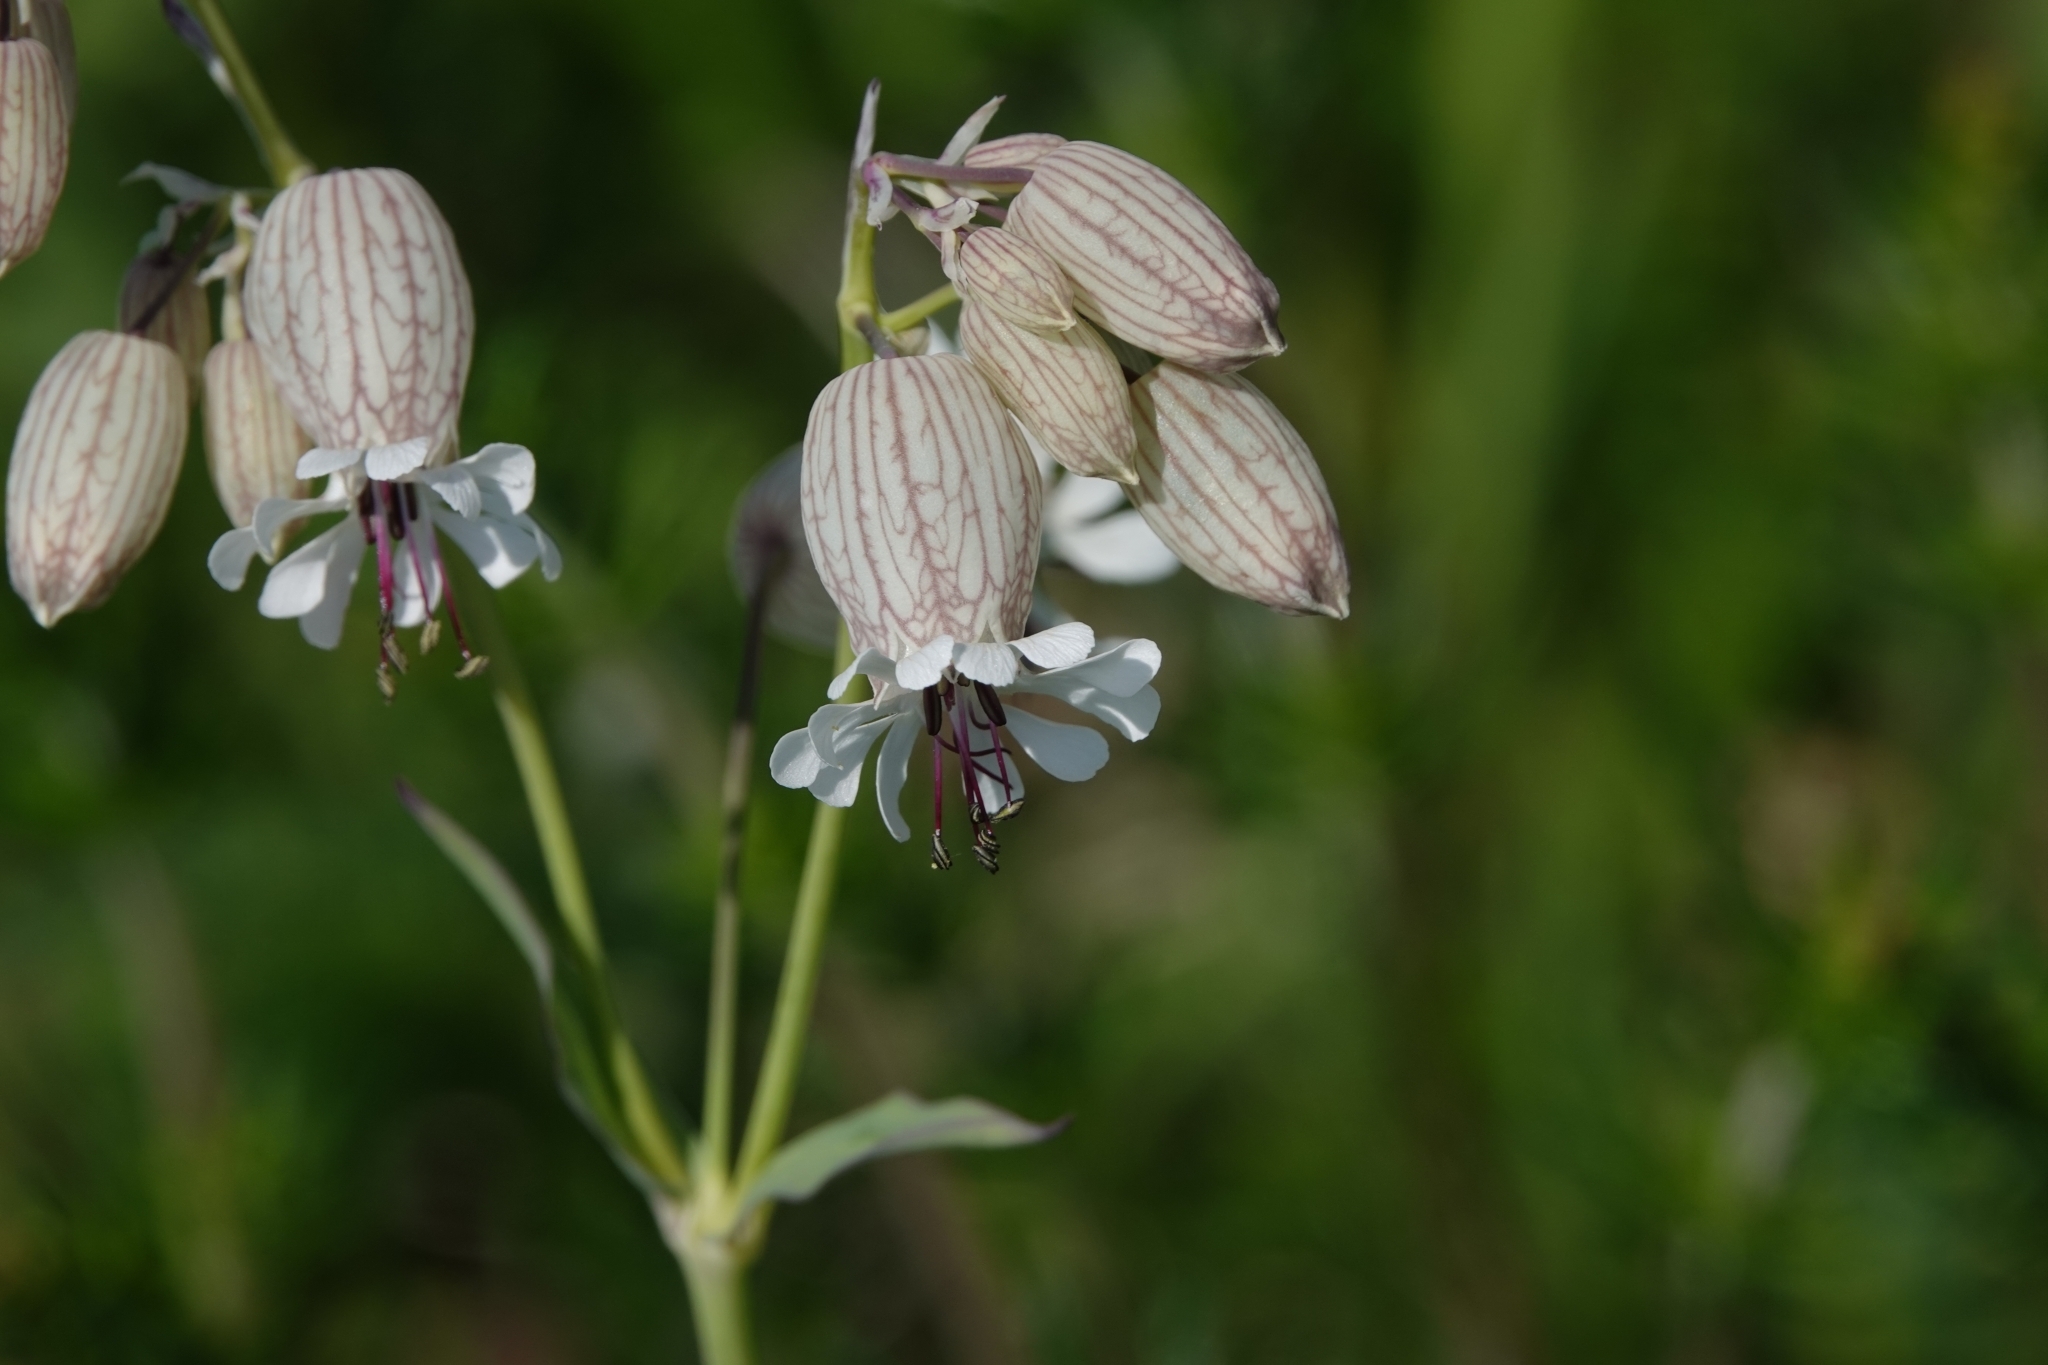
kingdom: Plantae
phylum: Tracheophyta
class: Magnoliopsida
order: Caryophyllales
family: Caryophyllaceae
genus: Silene
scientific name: Silene vulgaris
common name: Bladder campion
